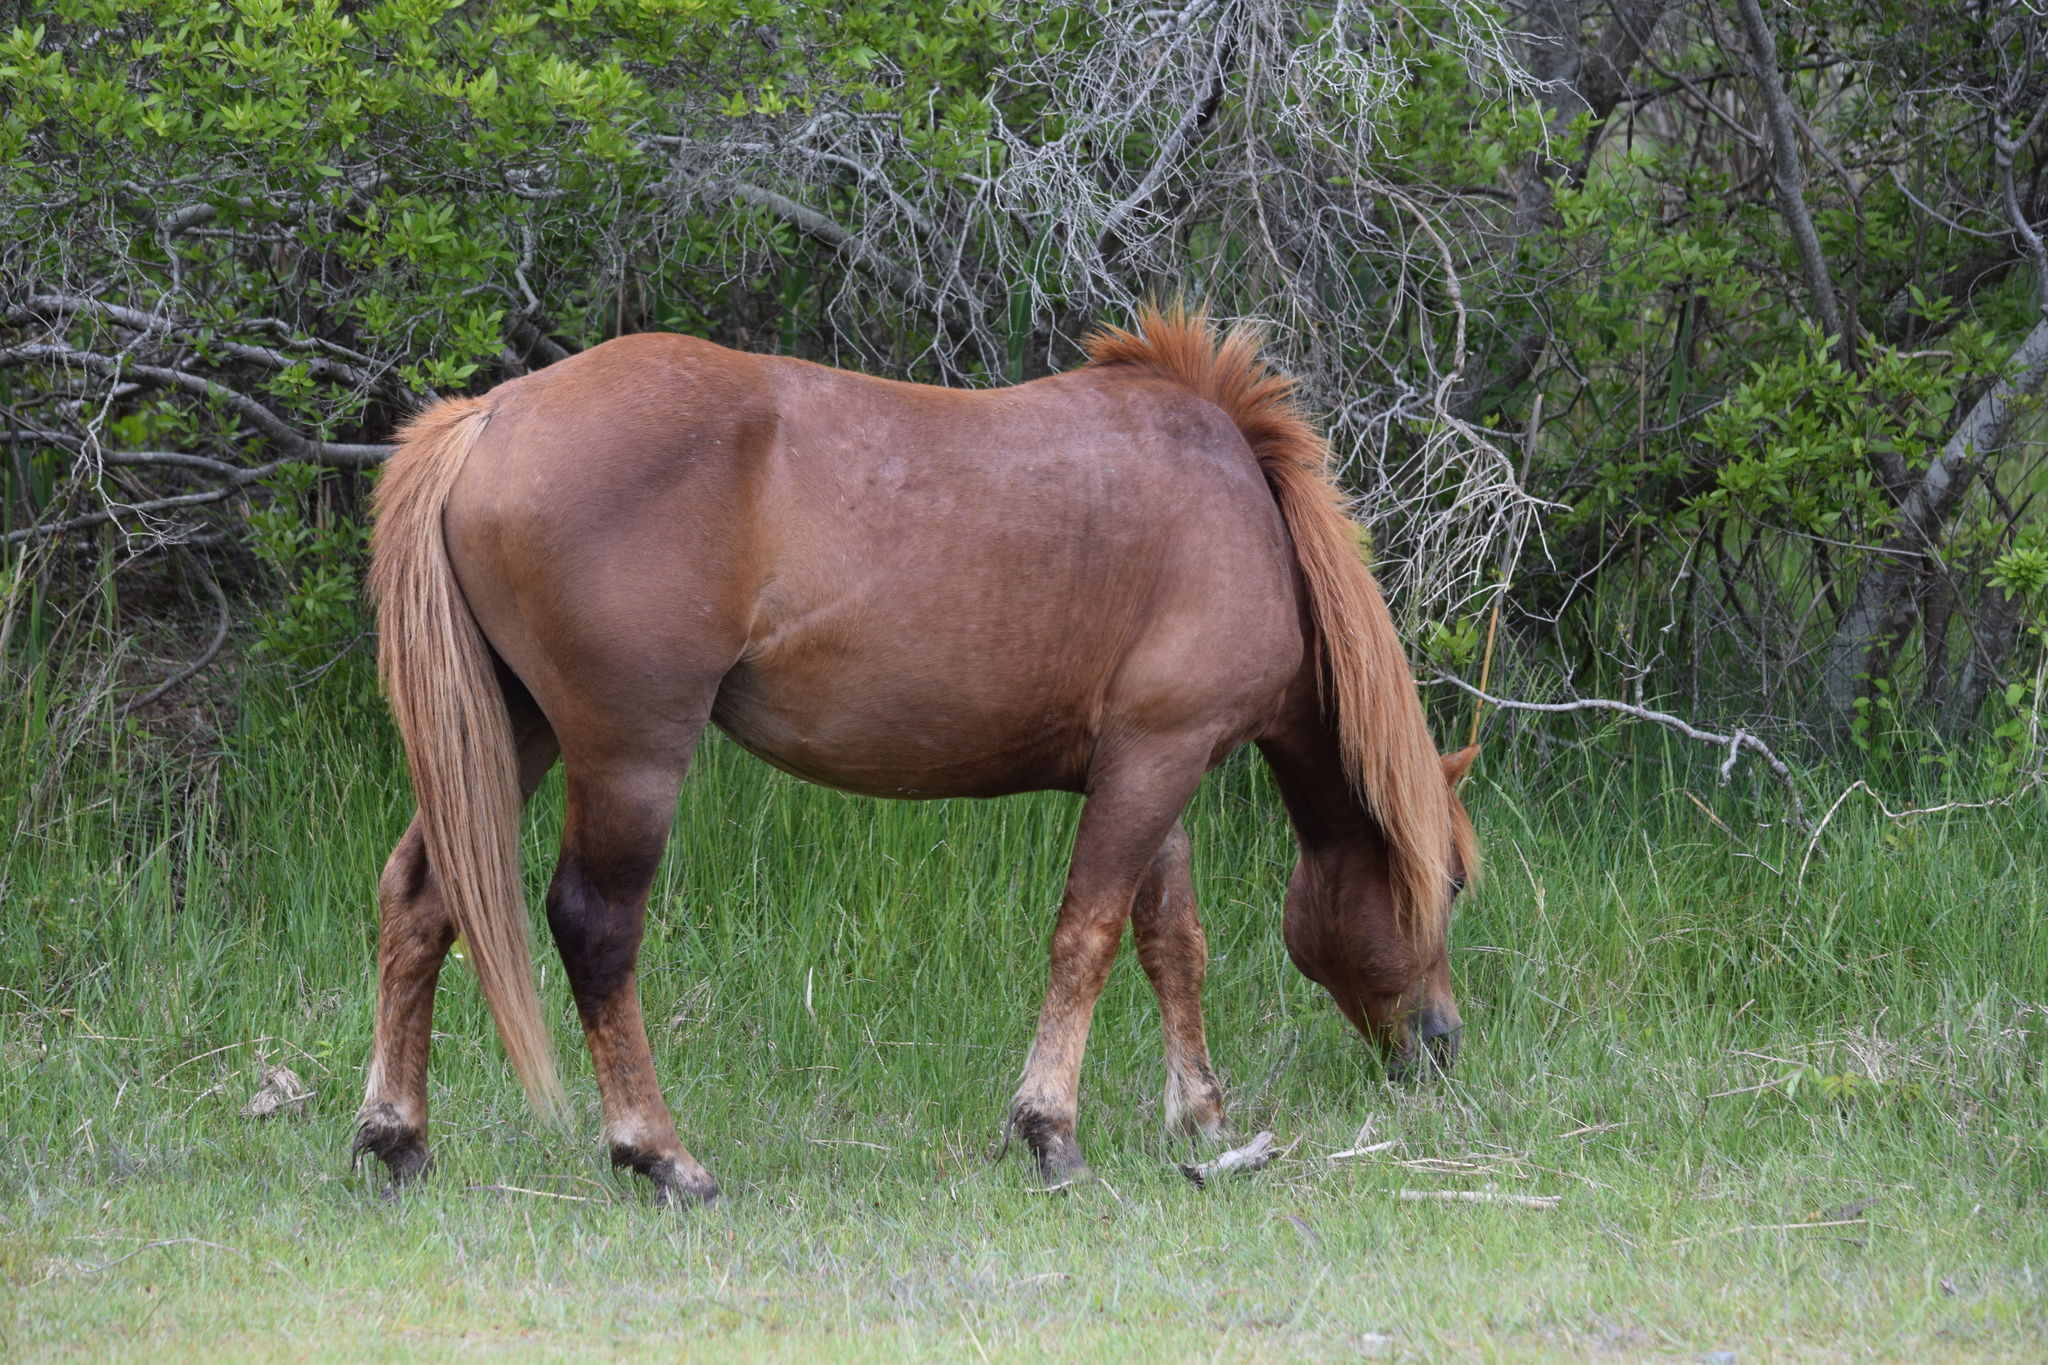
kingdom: Animalia
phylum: Chordata
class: Mammalia
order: Perissodactyla
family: Equidae
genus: Equus
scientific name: Equus caballus
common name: Horse
